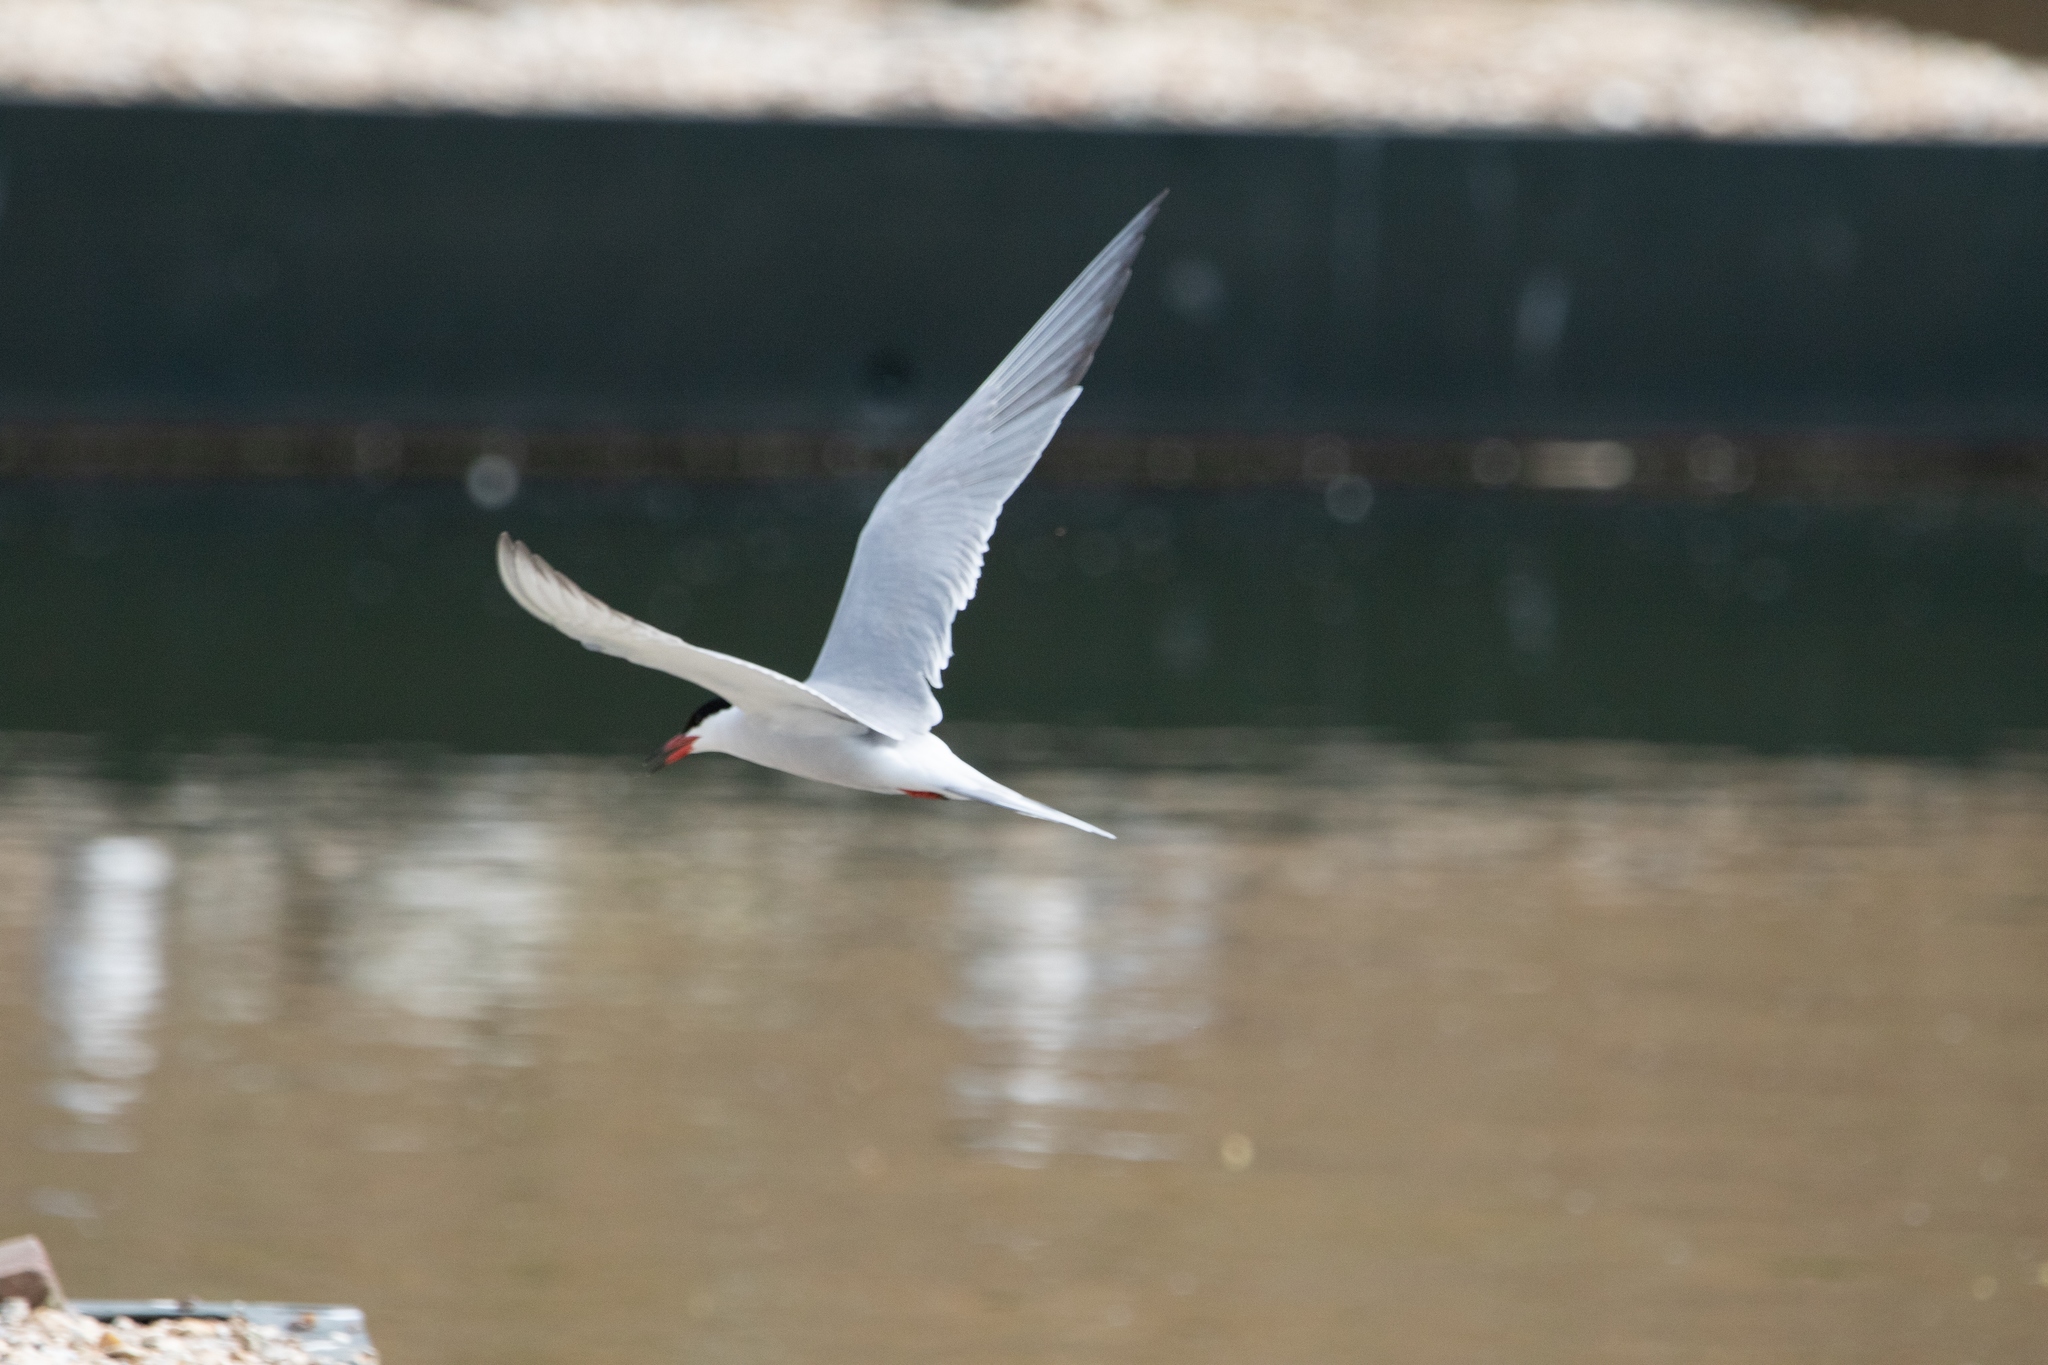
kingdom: Animalia
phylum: Chordata
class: Aves
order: Charadriiformes
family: Laridae
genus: Sterna
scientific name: Sterna hirundo
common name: Common tern
